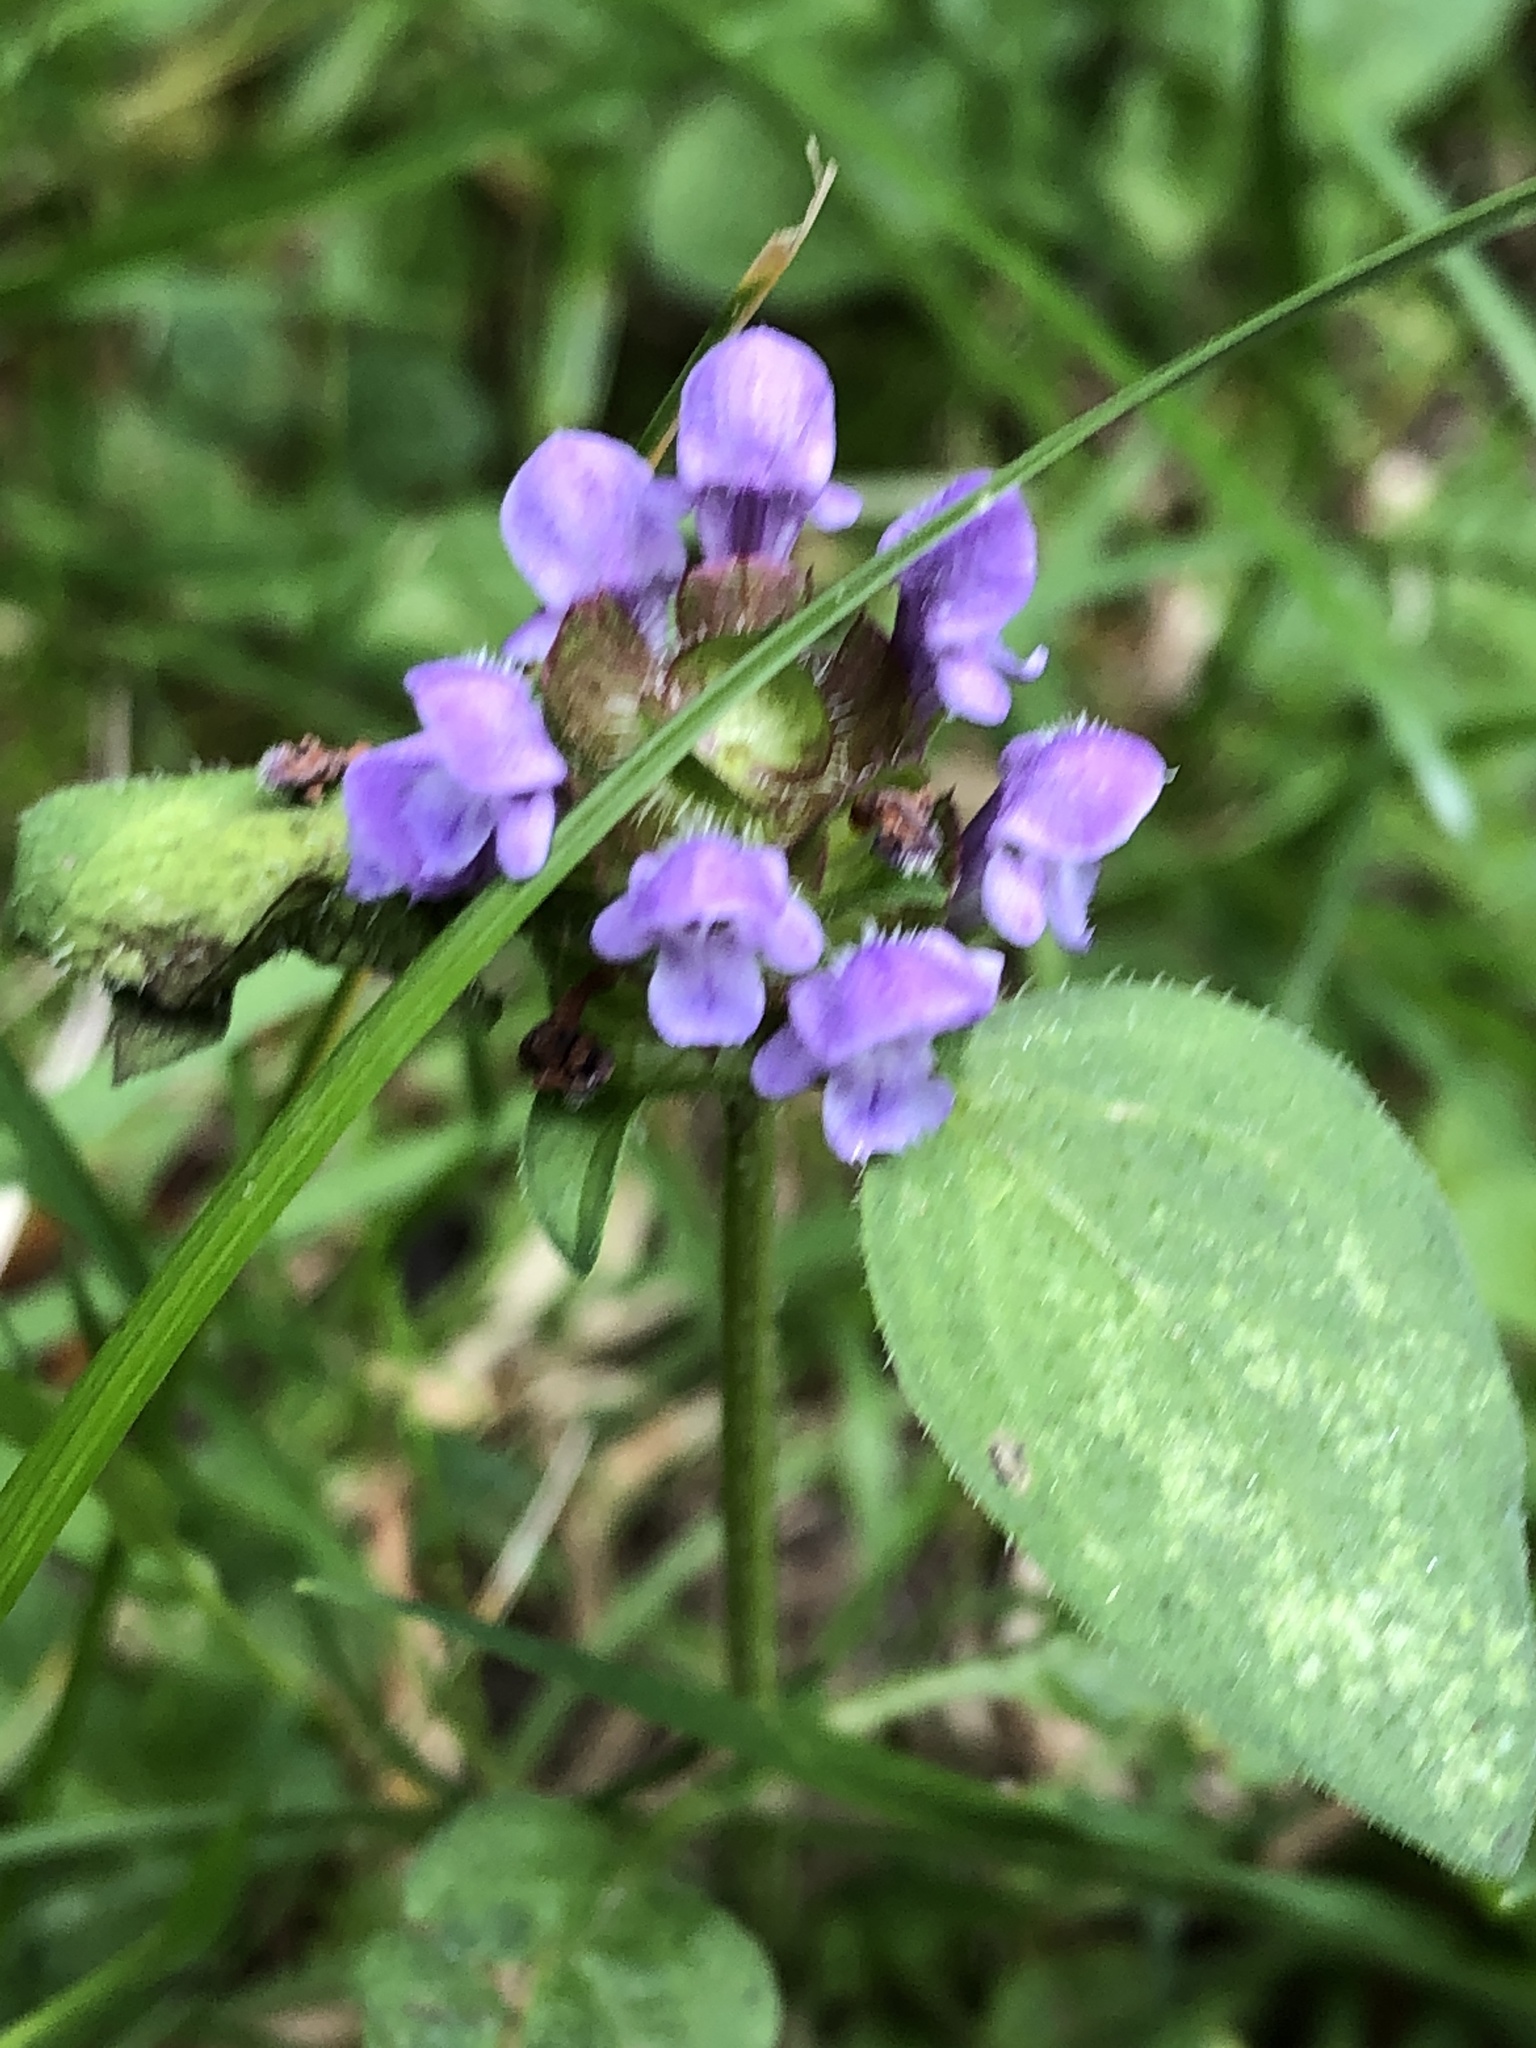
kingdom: Plantae
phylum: Tracheophyta
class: Magnoliopsida
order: Lamiales
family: Lamiaceae
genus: Prunella
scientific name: Prunella vulgaris
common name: Heal-all
